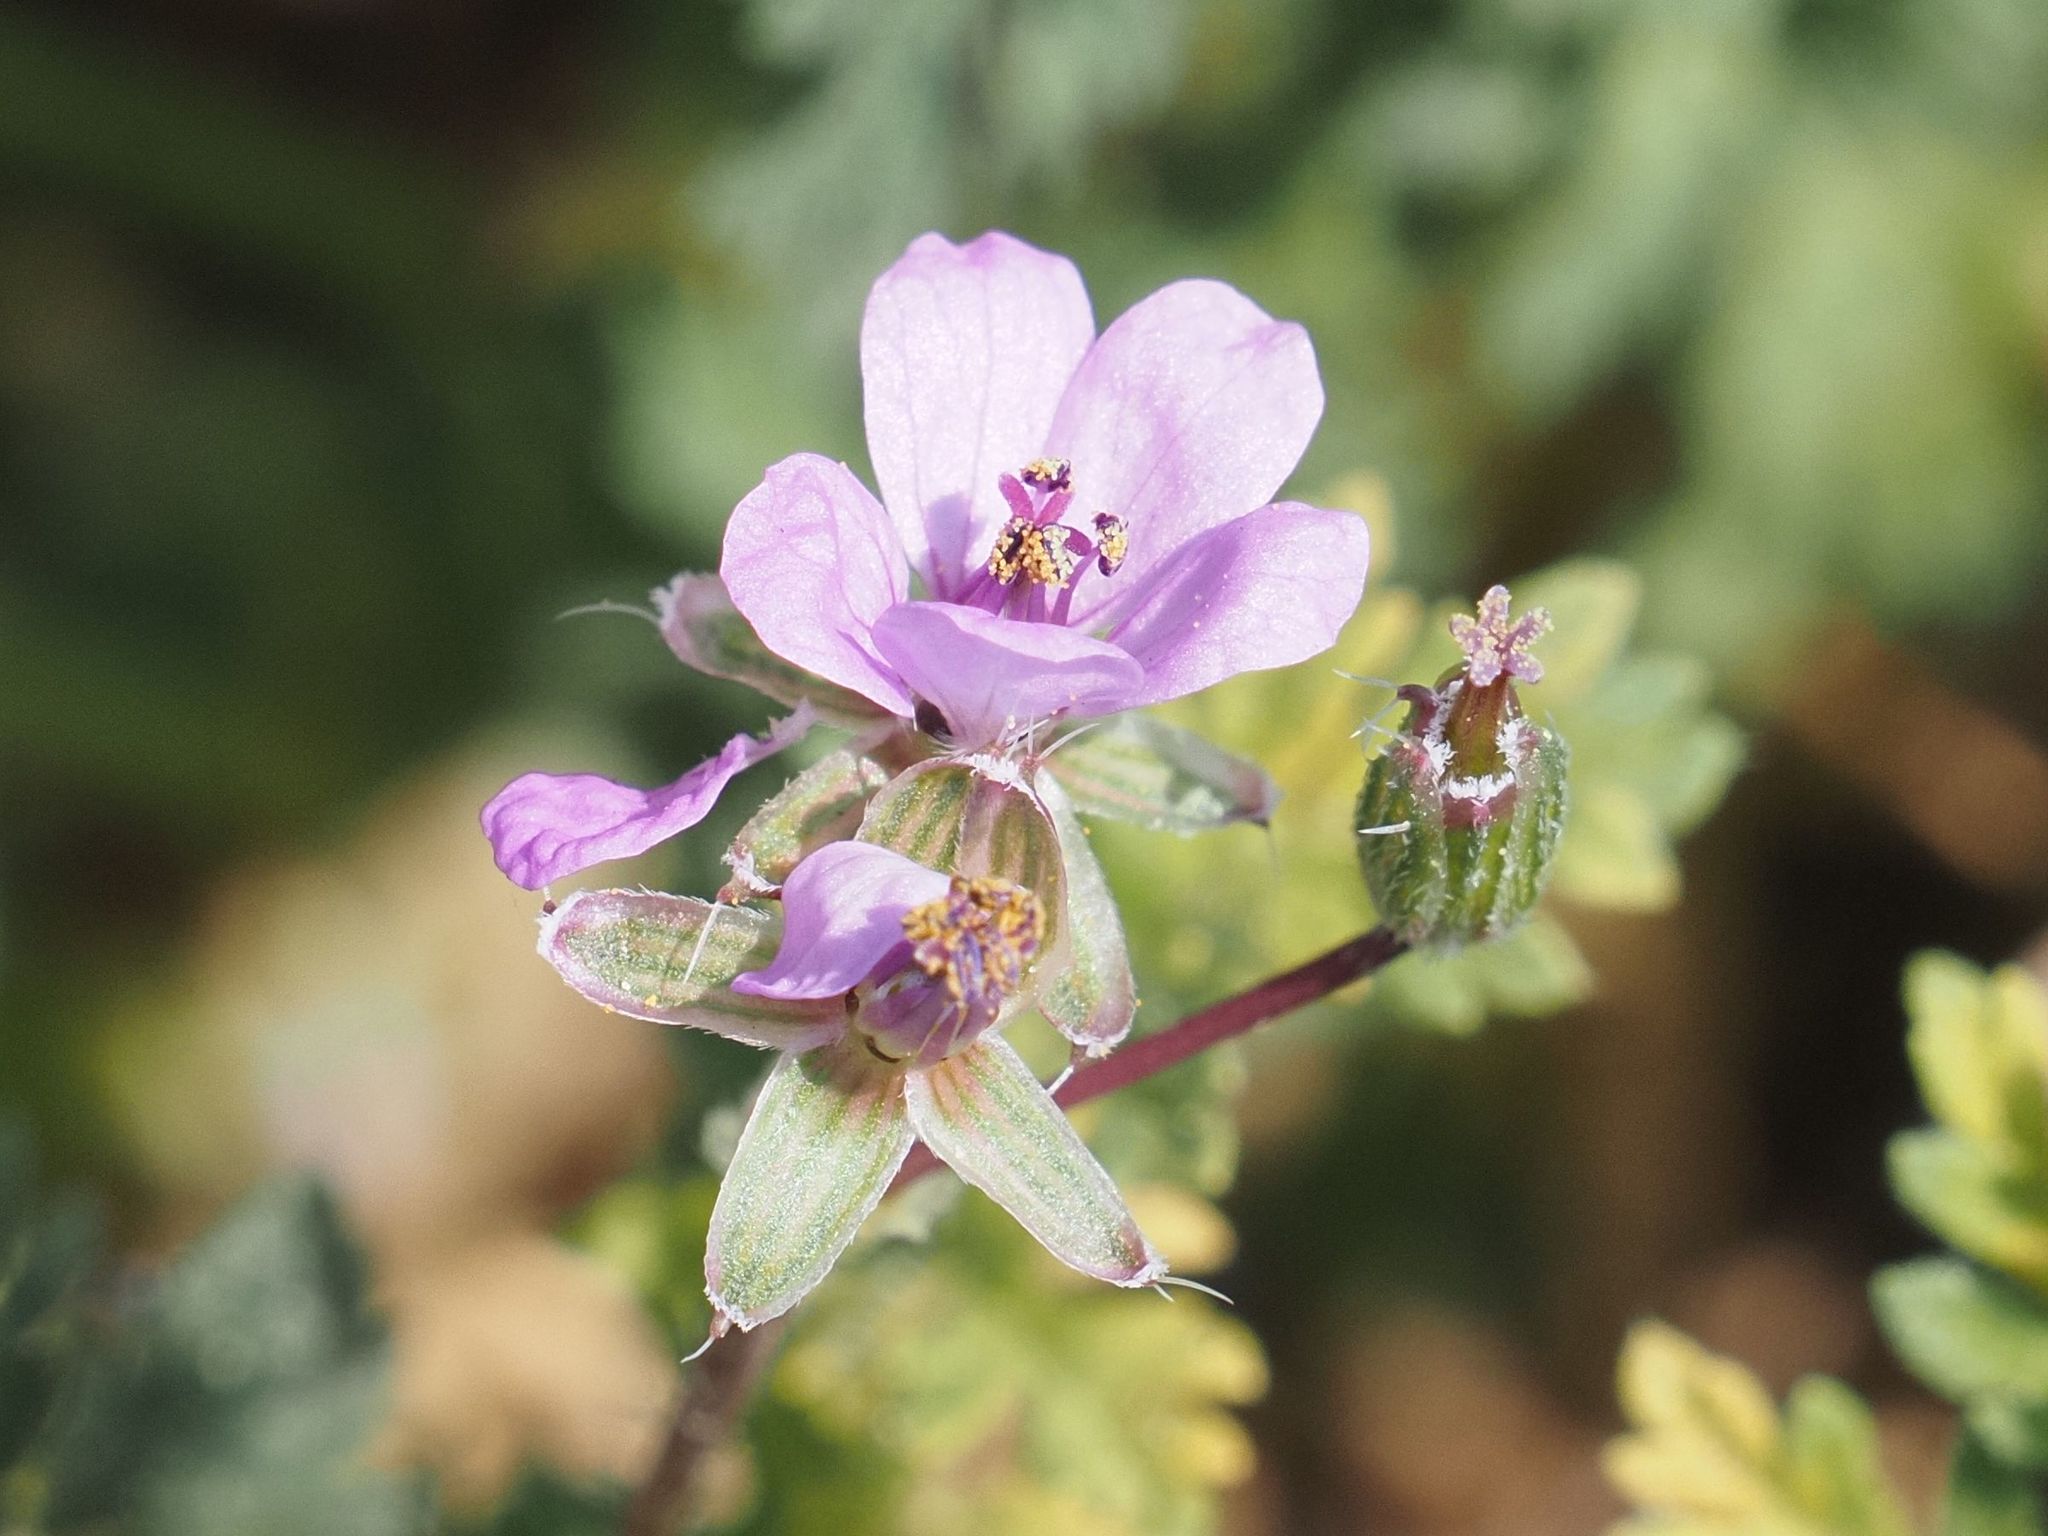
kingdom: Plantae
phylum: Tracheophyta
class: Magnoliopsida
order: Geraniales
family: Geraniaceae
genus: Erodium
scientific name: Erodium cicutarium
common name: Common stork's-bill
